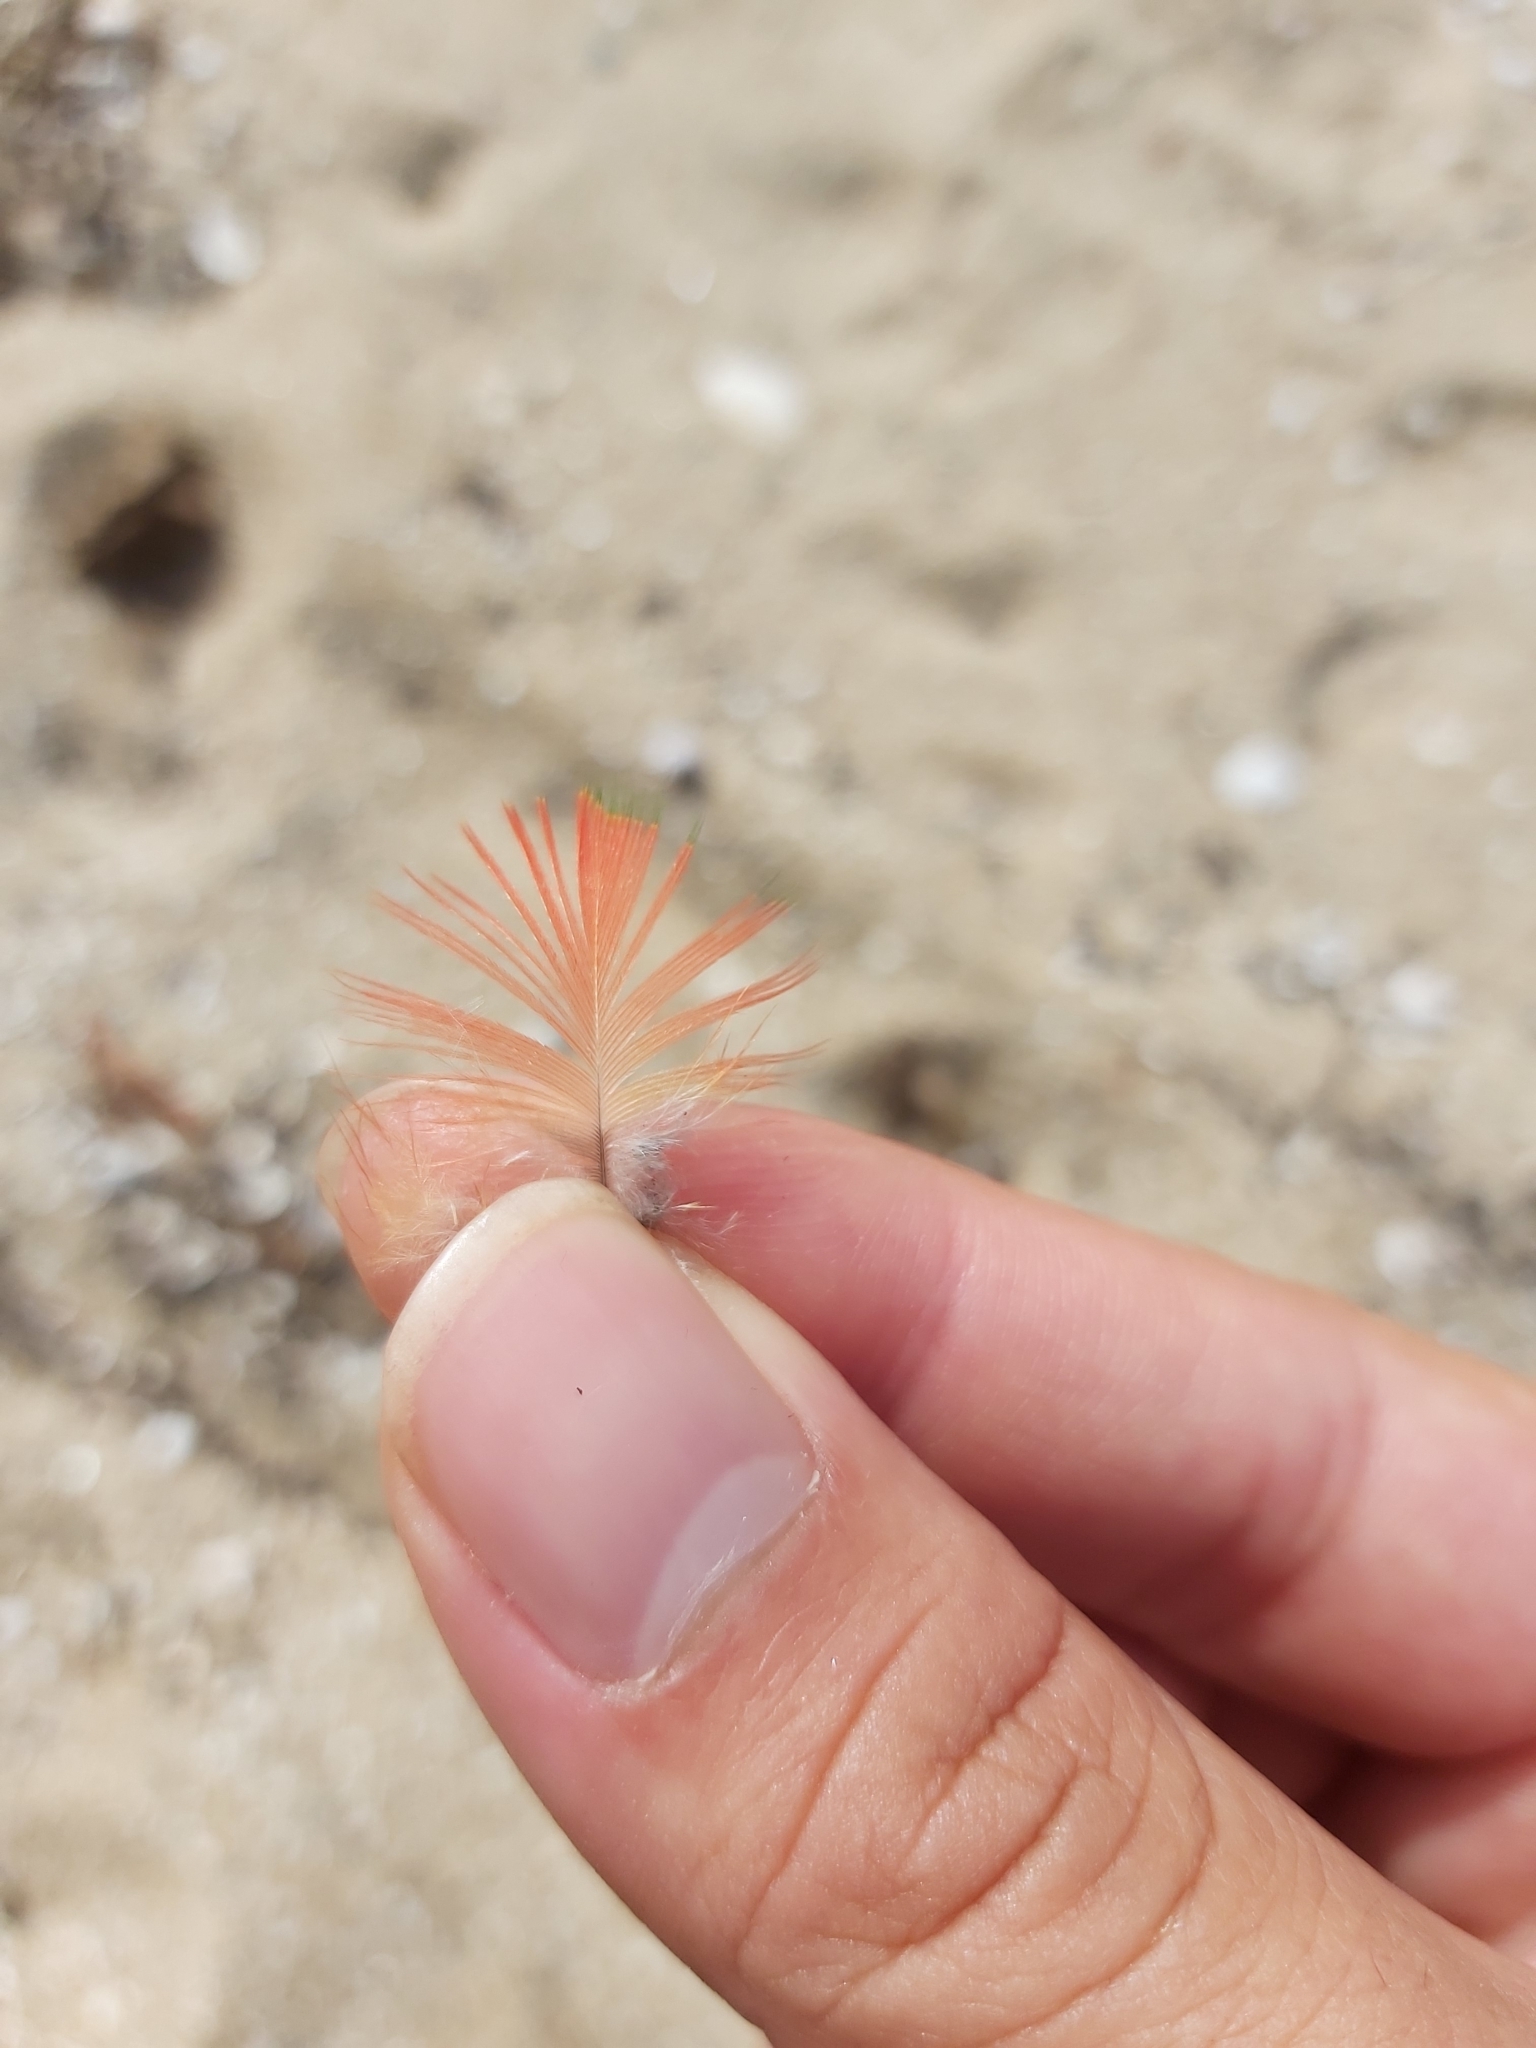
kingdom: Animalia
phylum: Chordata
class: Aves
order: Psittaciformes
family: Psittacidae
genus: Trichoglossus
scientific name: Trichoglossus haematodus
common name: Coconut lorikeet
